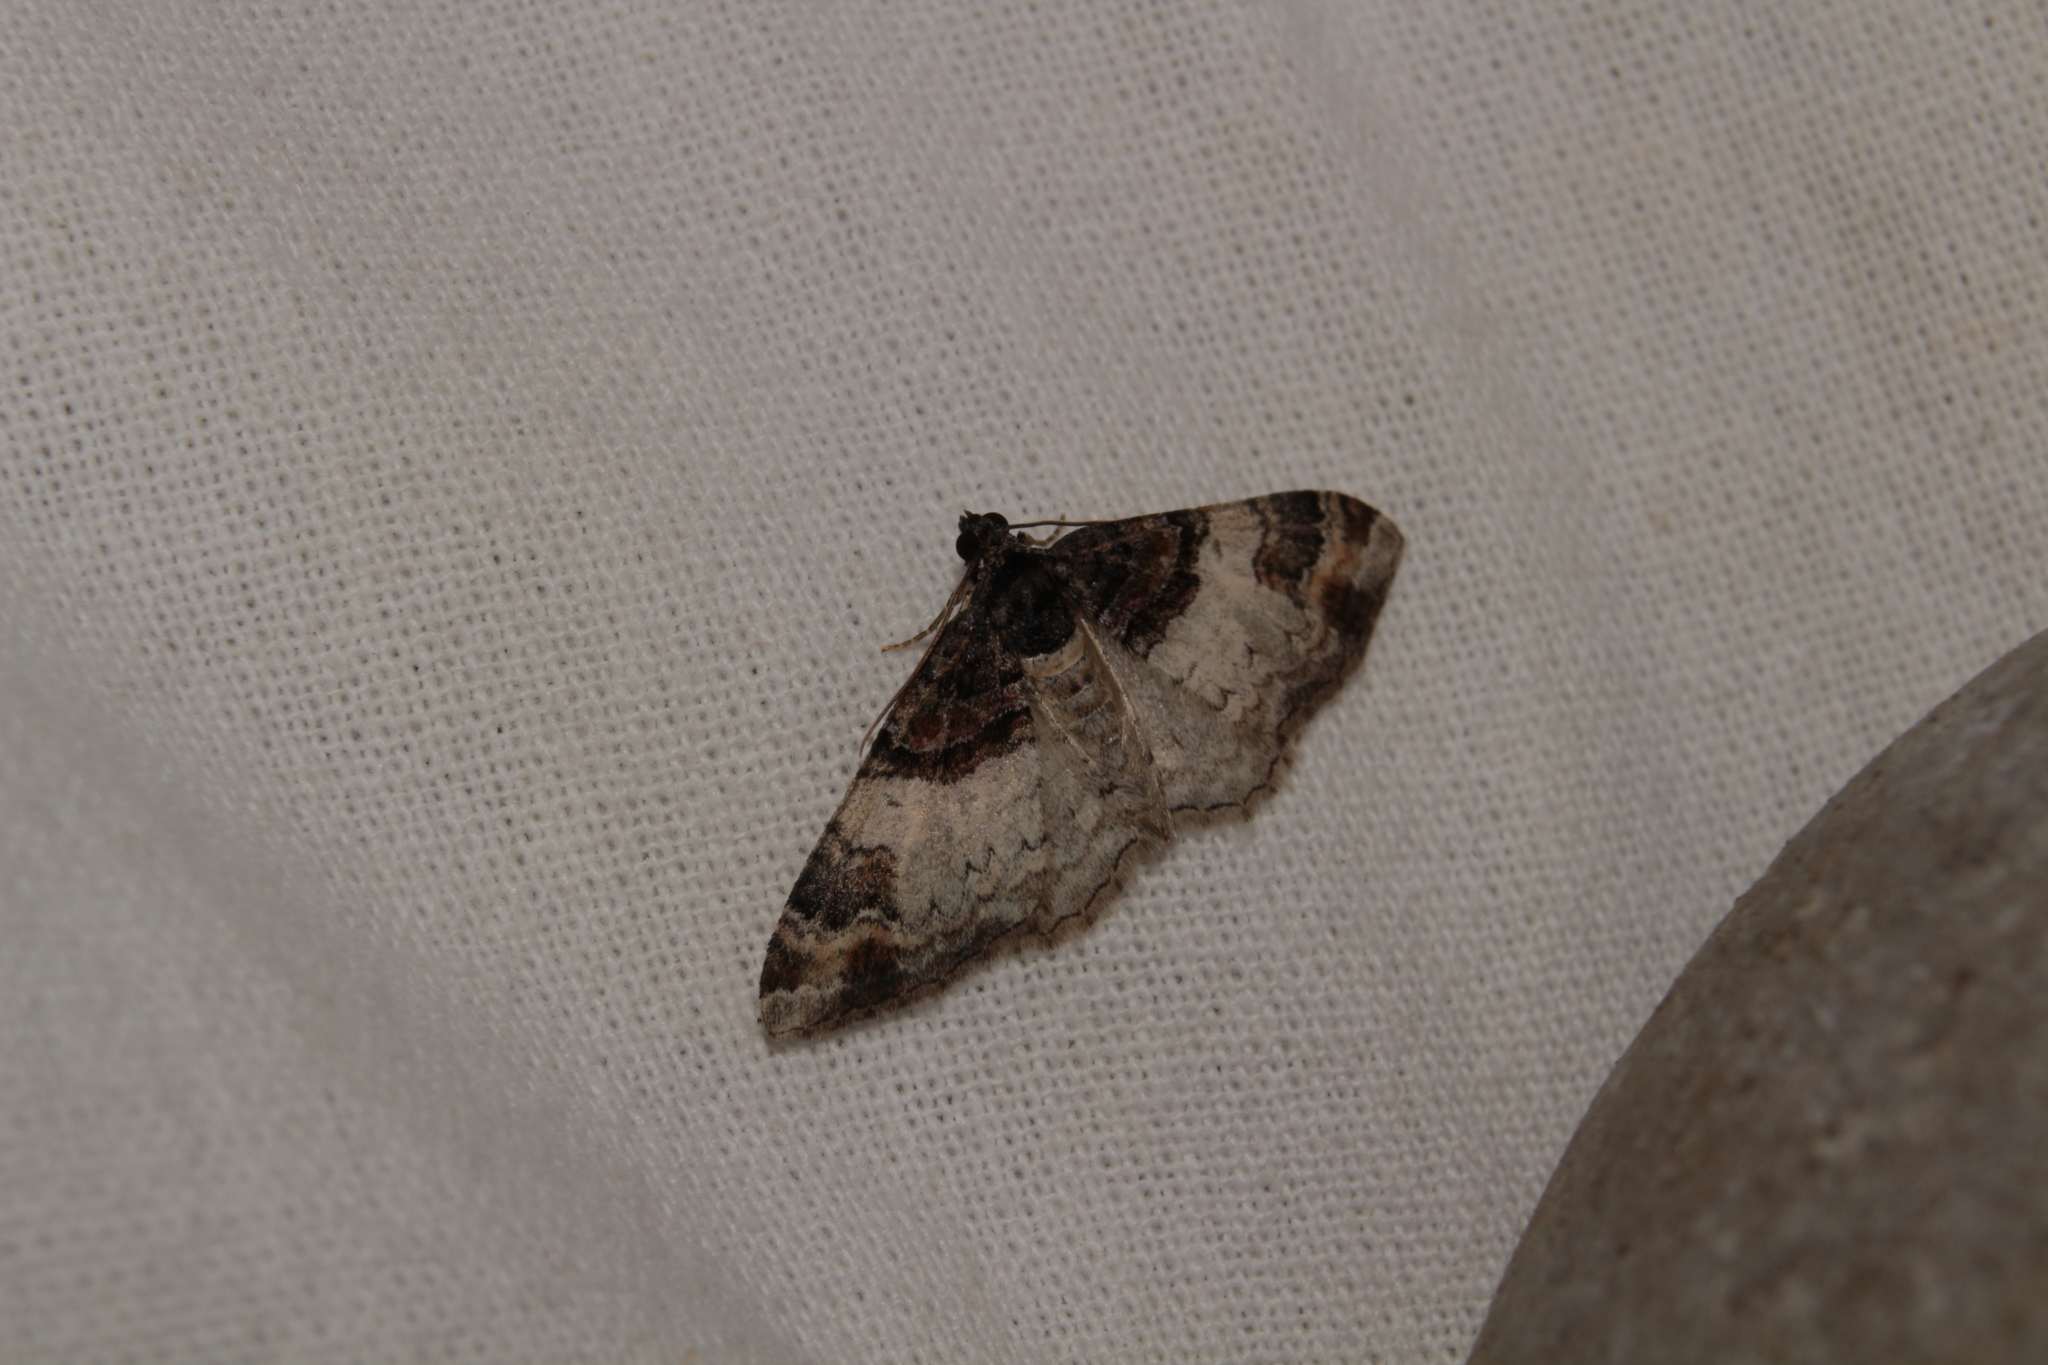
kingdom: Animalia
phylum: Arthropoda
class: Insecta
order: Lepidoptera
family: Geometridae
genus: Catarhoe
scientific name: Catarhoe cuculata
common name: Royal mantle
